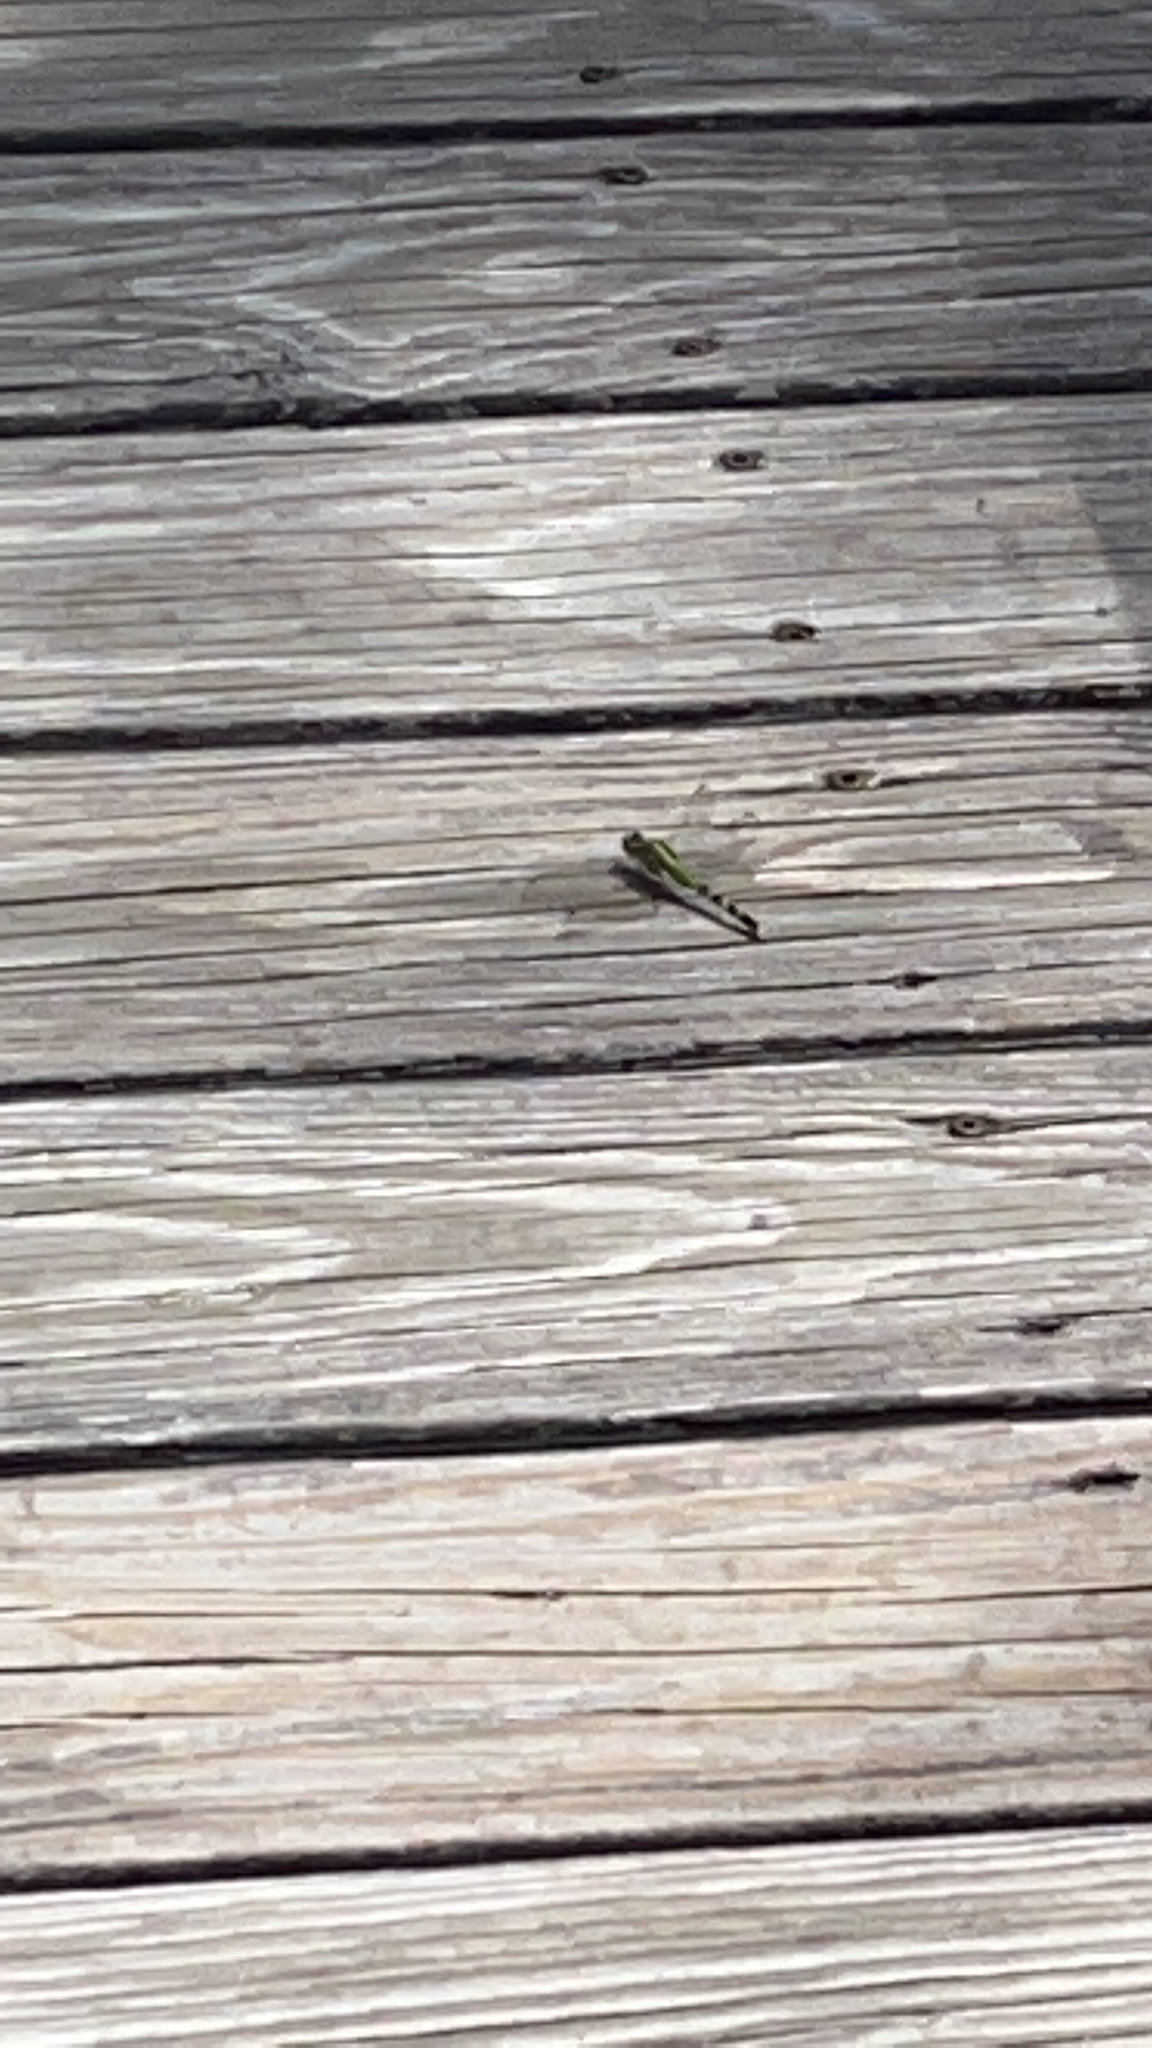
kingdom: Animalia
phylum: Arthropoda
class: Insecta
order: Odonata
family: Libellulidae
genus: Erythemis
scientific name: Erythemis simplicicollis
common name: Eastern pondhawk
